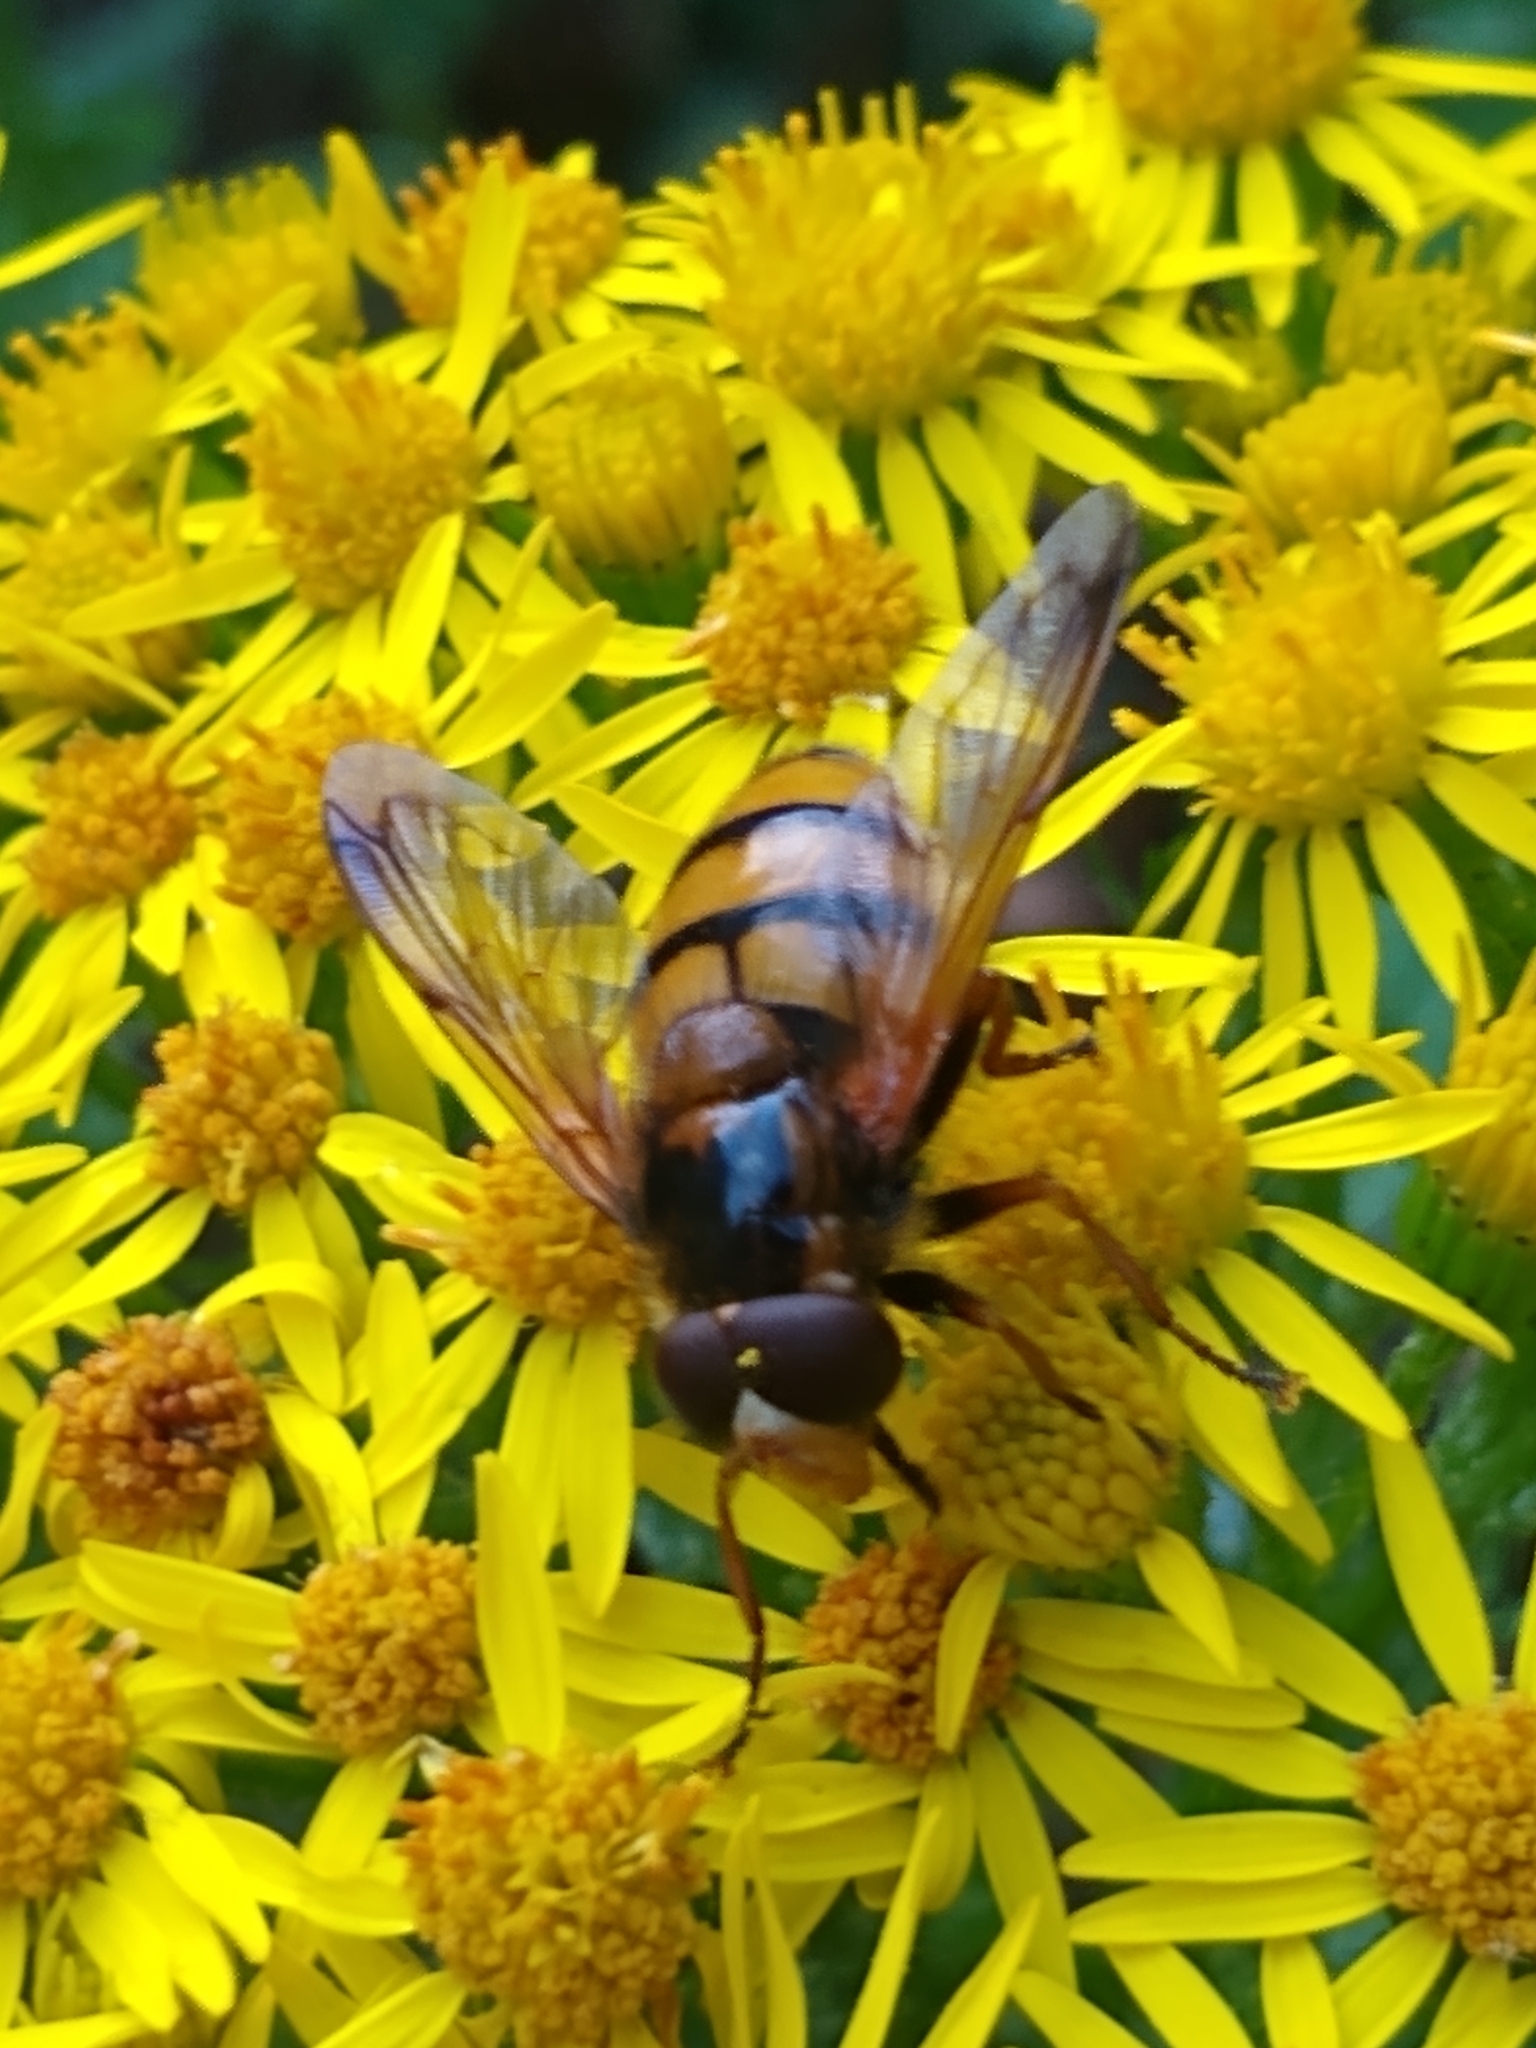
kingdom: Animalia
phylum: Arthropoda
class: Insecta
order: Diptera
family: Syrphidae
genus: Volucella
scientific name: Volucella inanis
